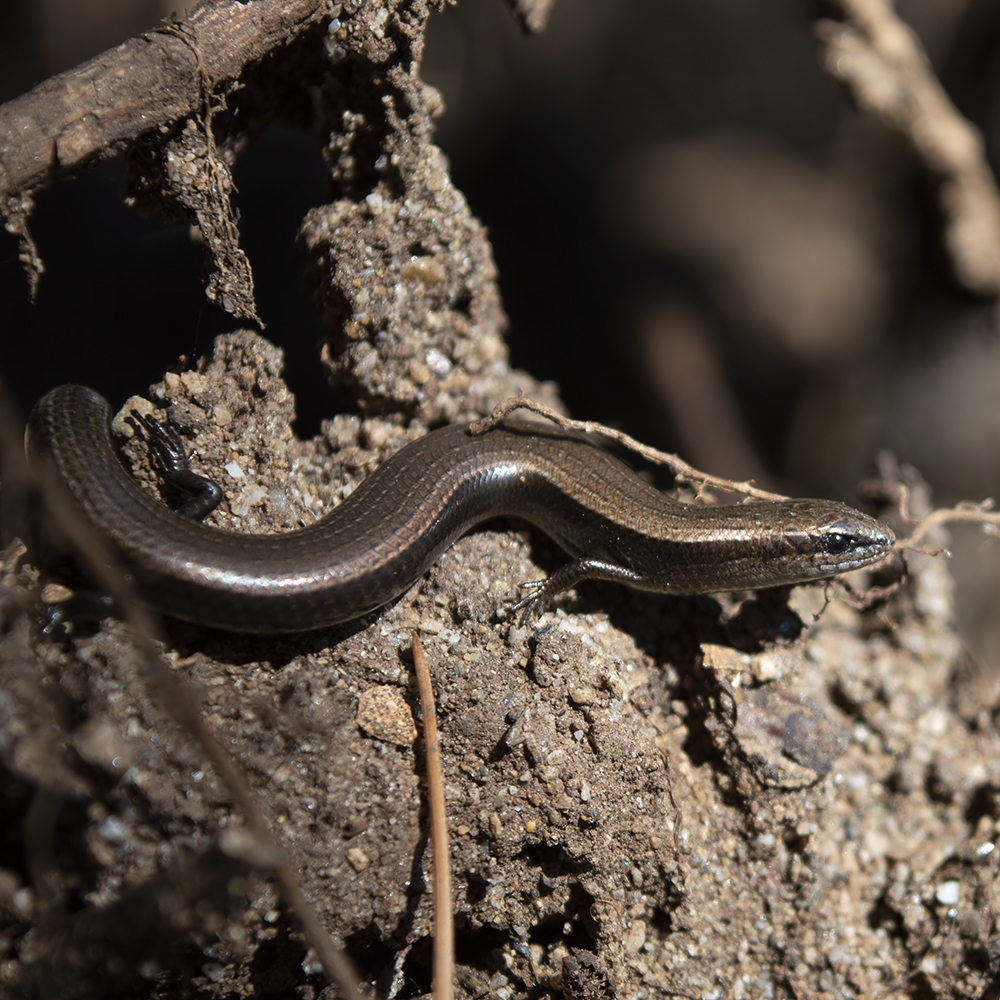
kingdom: Animalia
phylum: Chordata
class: Squamata
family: Scincidae
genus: Ablepharus
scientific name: Ablepharus kitaibelii
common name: Juniper skink
